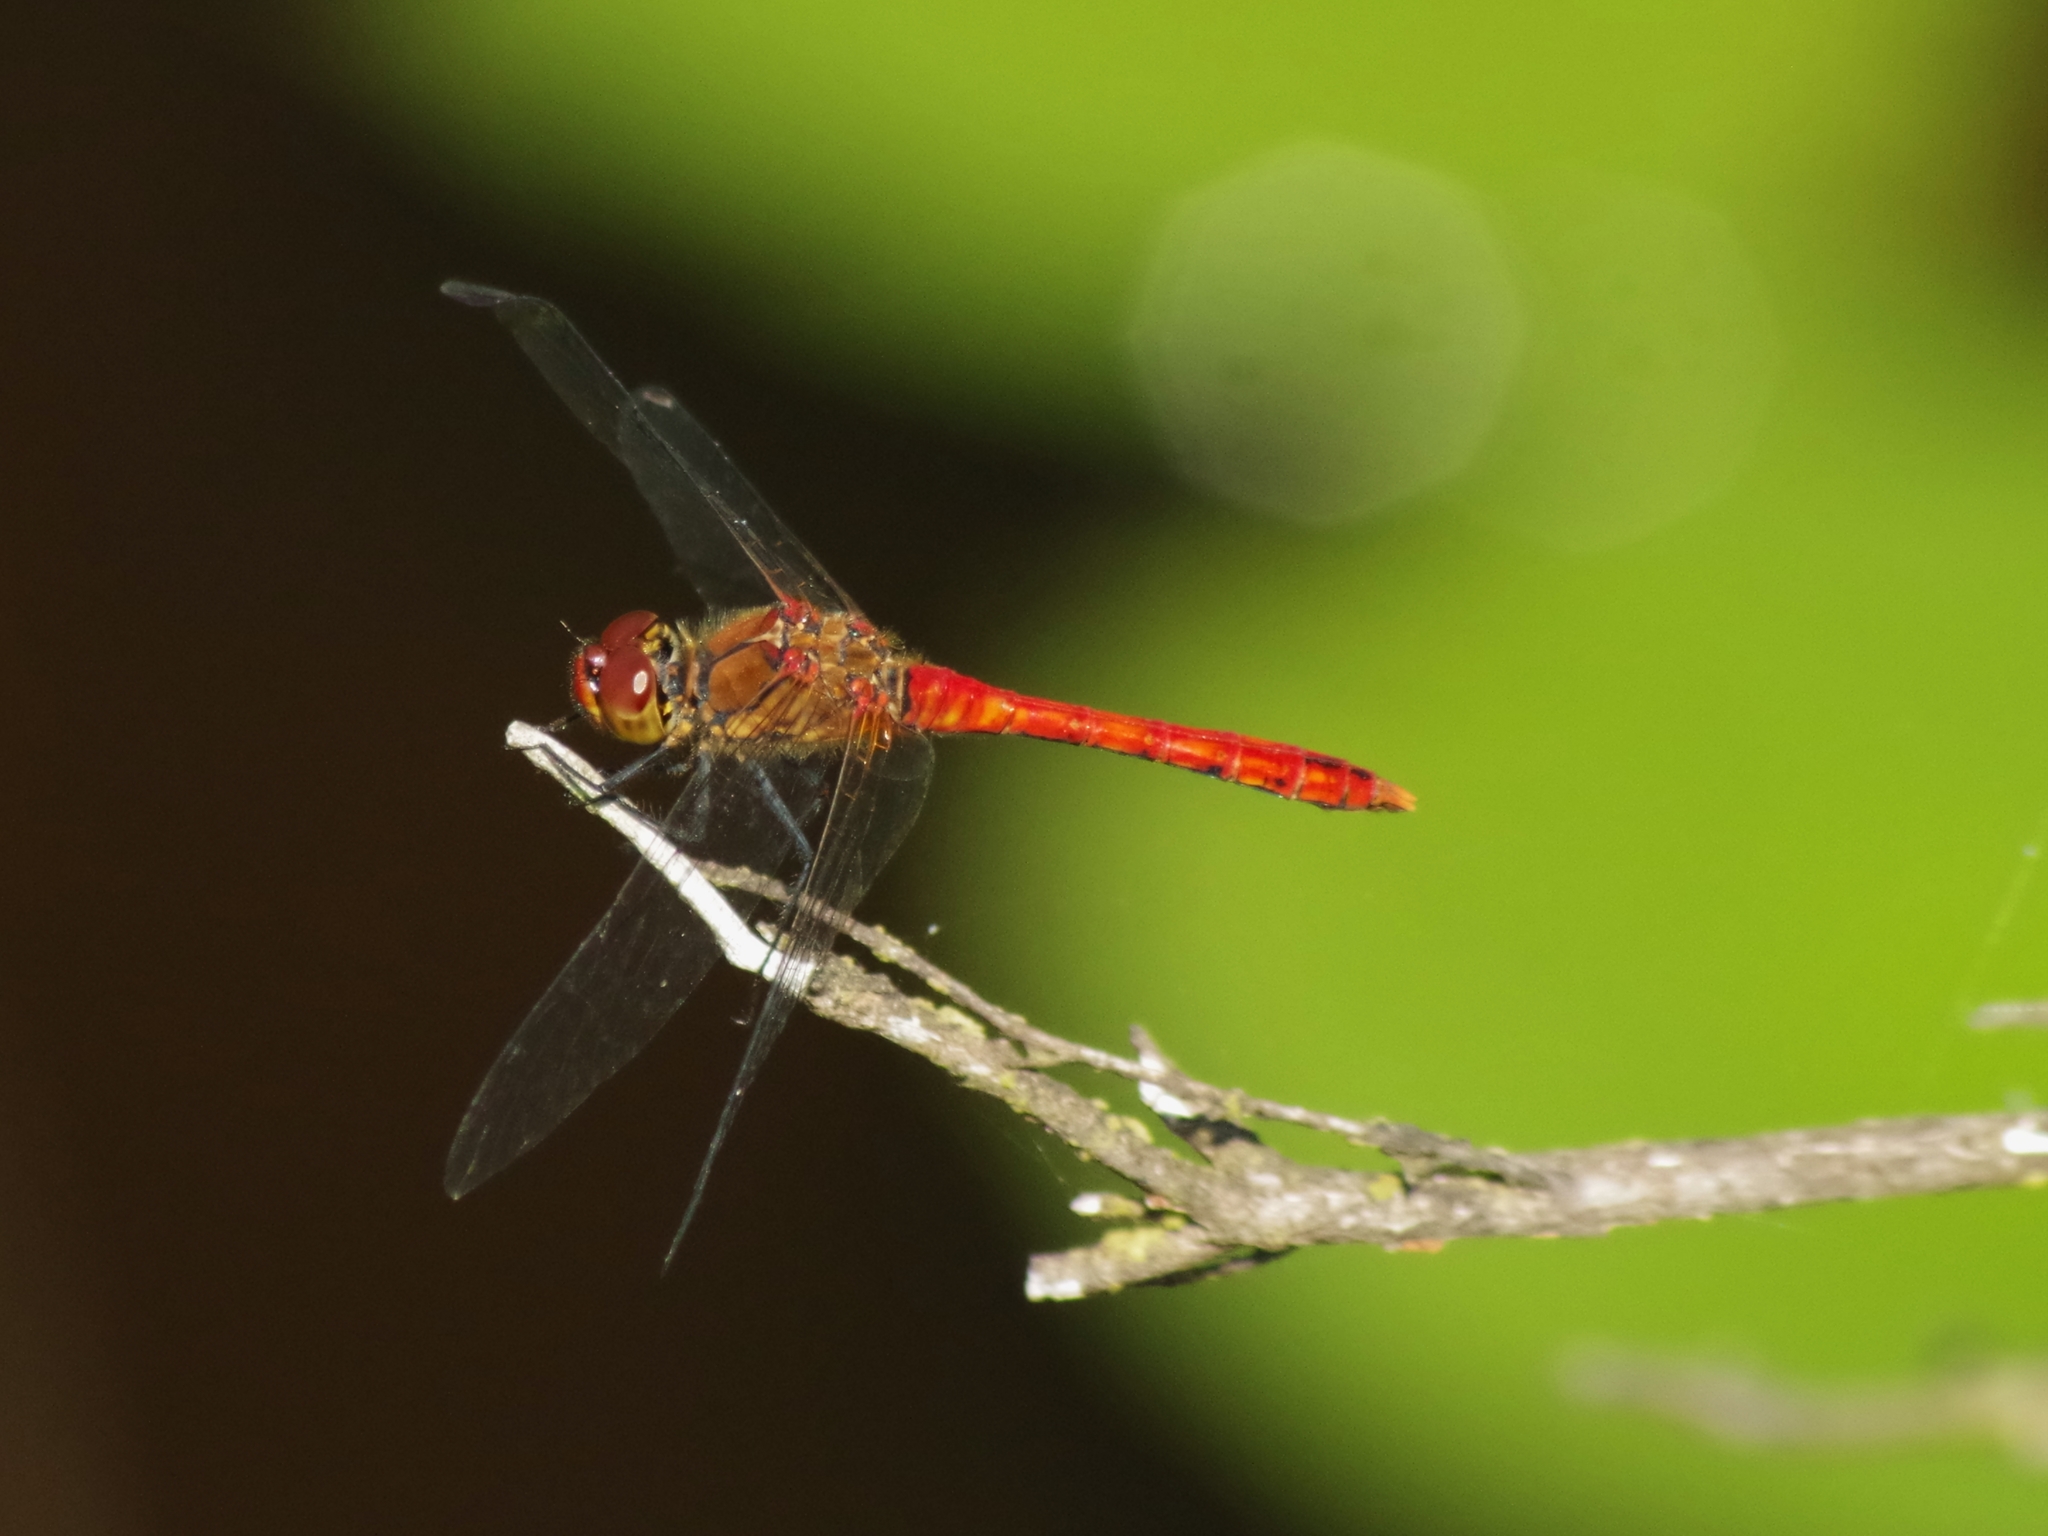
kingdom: Animalia
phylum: Arthropoda
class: Insecta
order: Odonata
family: Libellulidae
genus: Sympetrum
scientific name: Sympetrum sanguineum
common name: Ruddy darter
